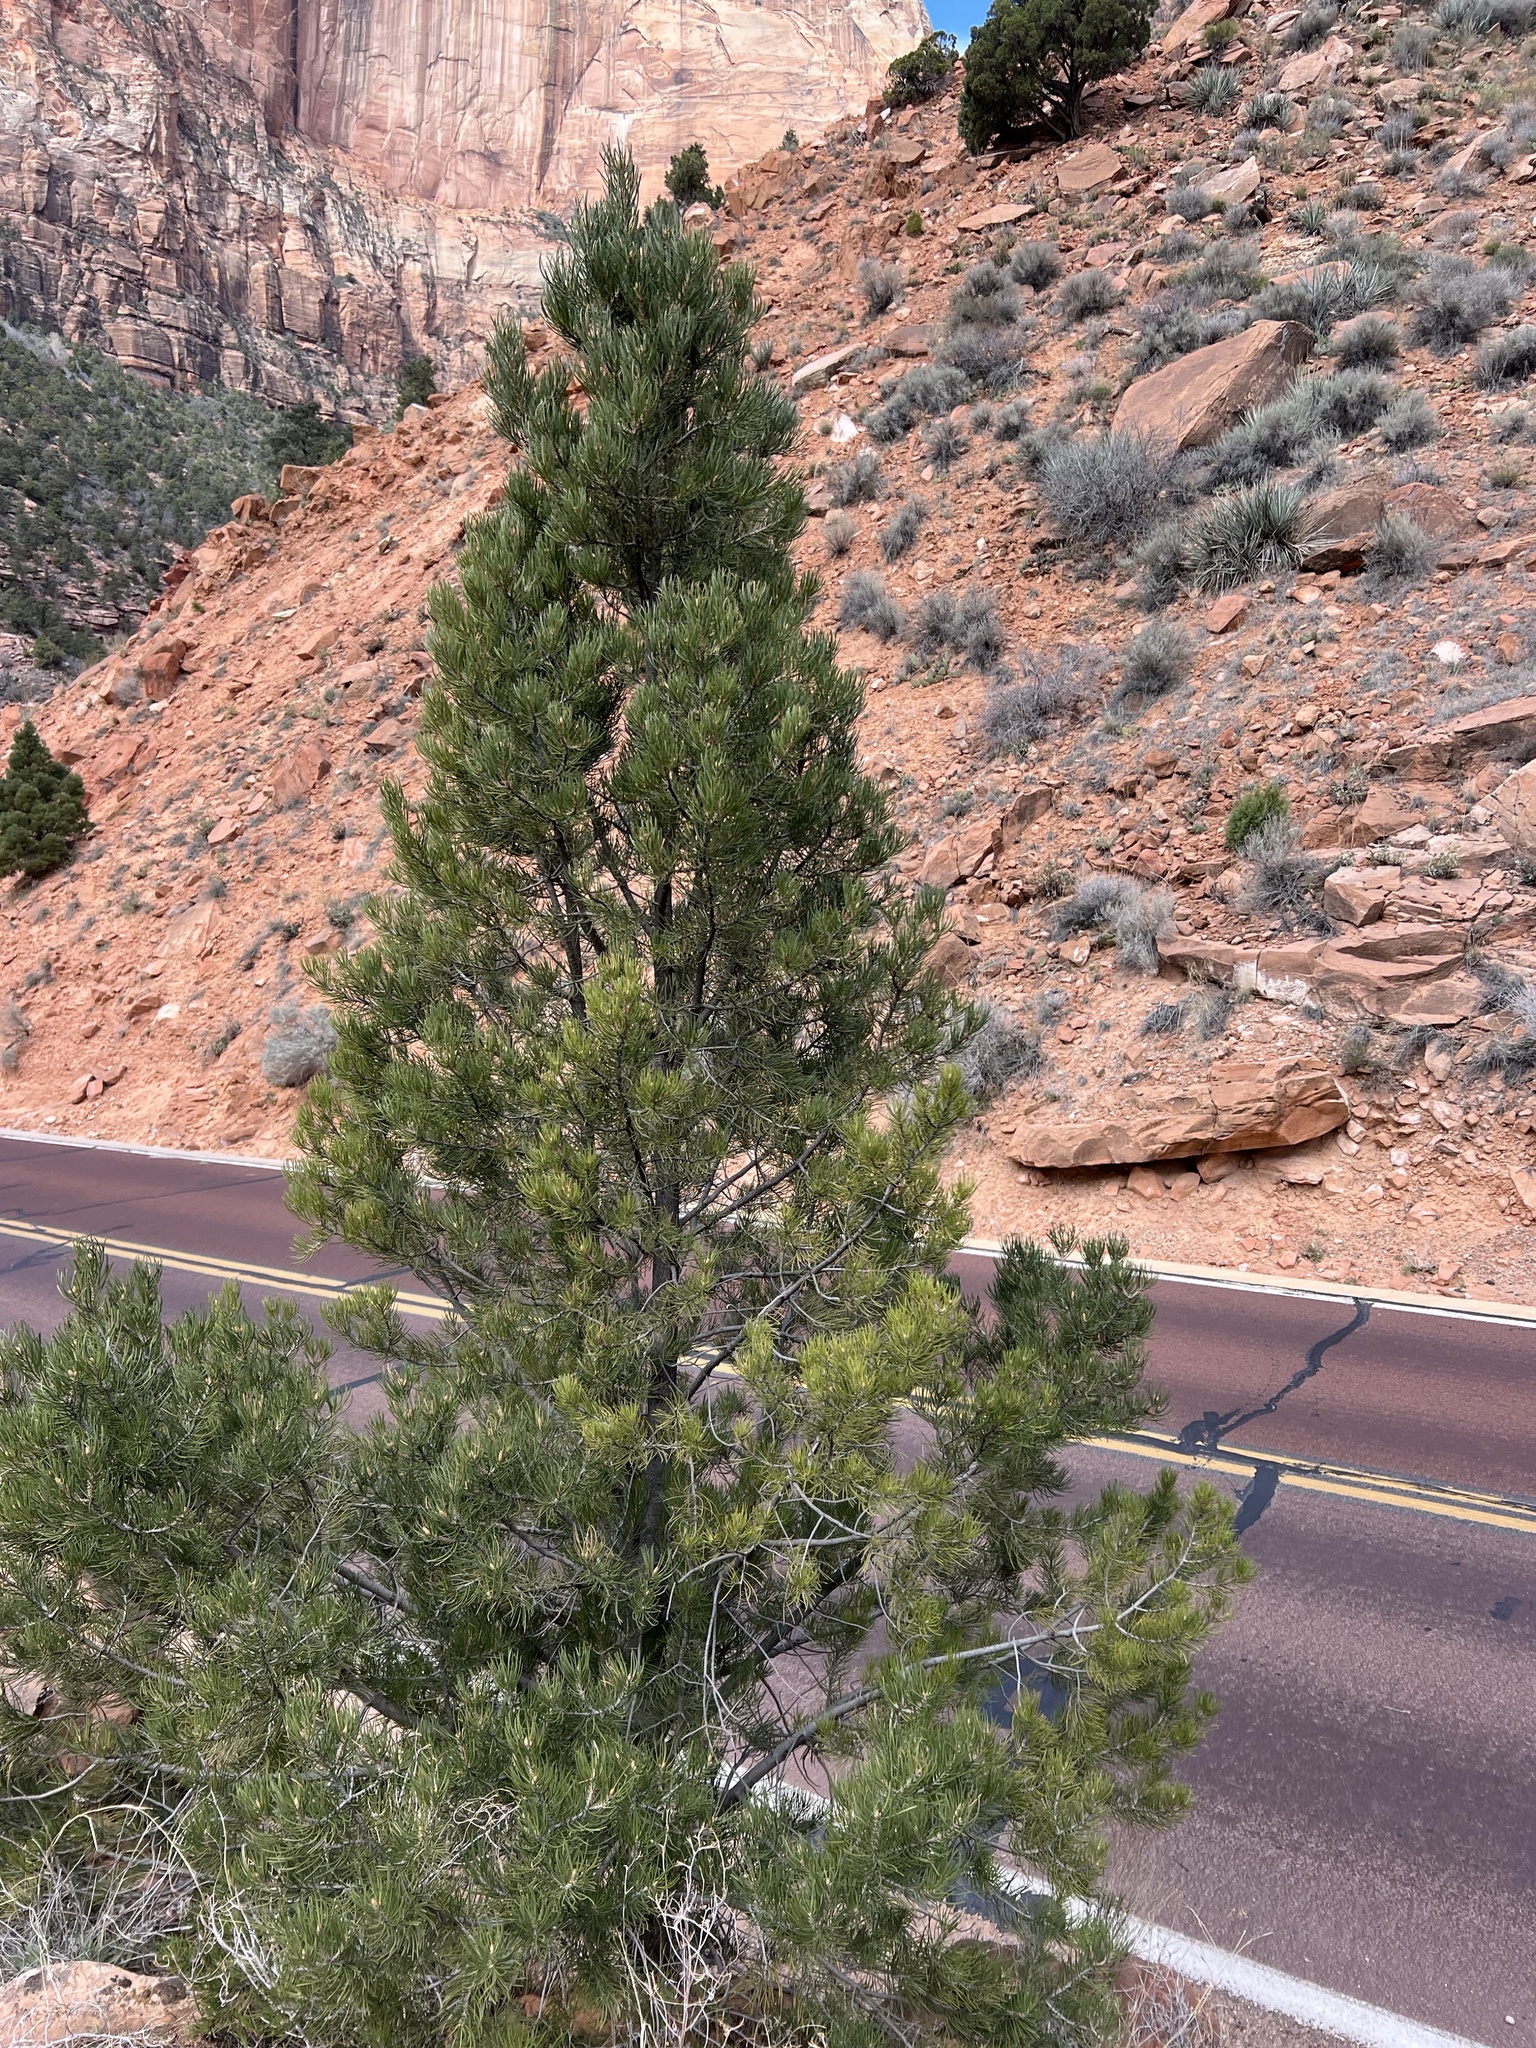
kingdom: Plantae
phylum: Tracheophyta
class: Pinopsida
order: Pinales
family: Pinaceae
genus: Pinus
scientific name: Pinus monophylla
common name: One-leaved nut pine
